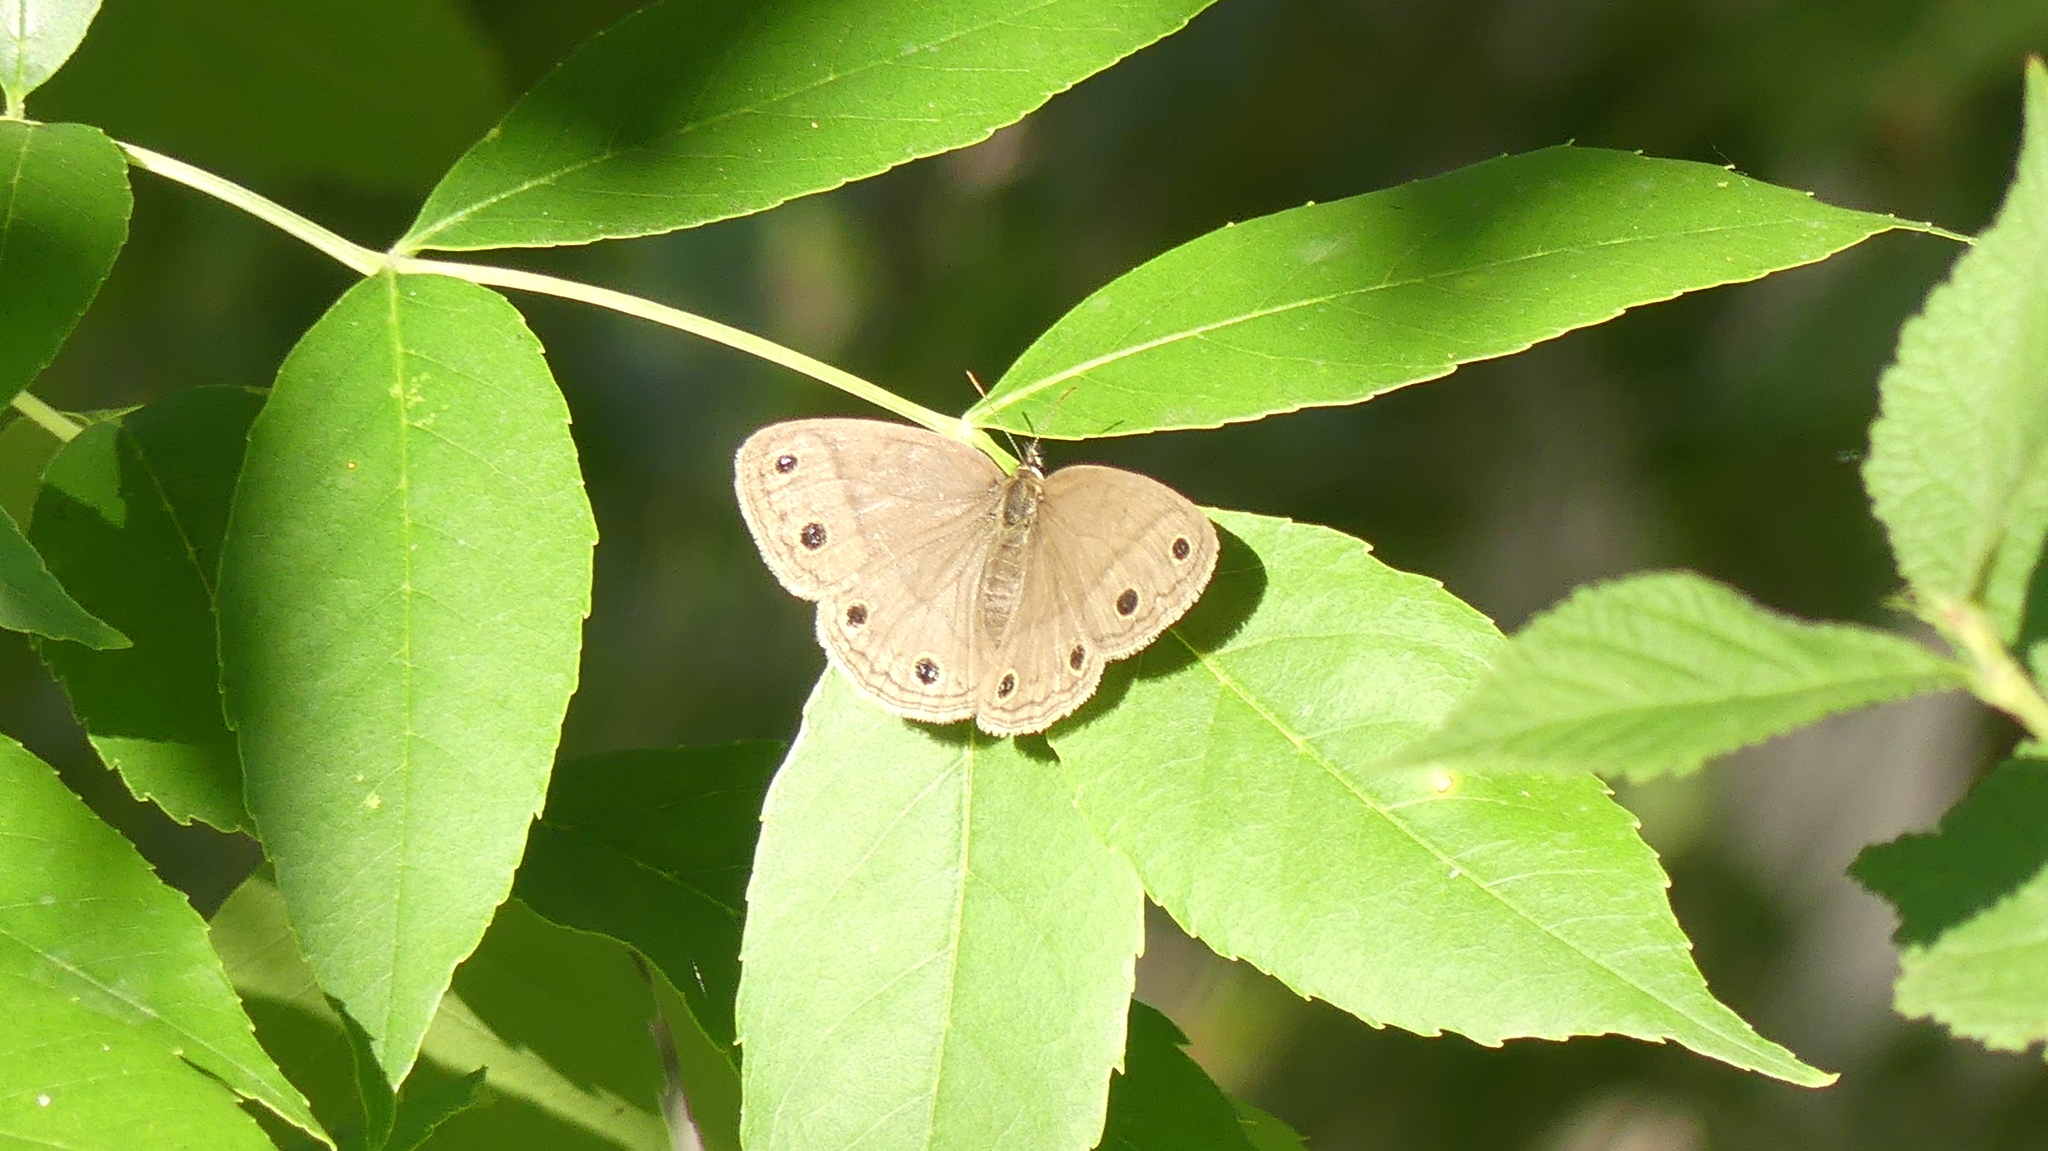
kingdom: Animalia
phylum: Arthropoda
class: Insecta
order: Lepidoptera
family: Nymphalidae
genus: Euptychia
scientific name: Euptychia cymela
